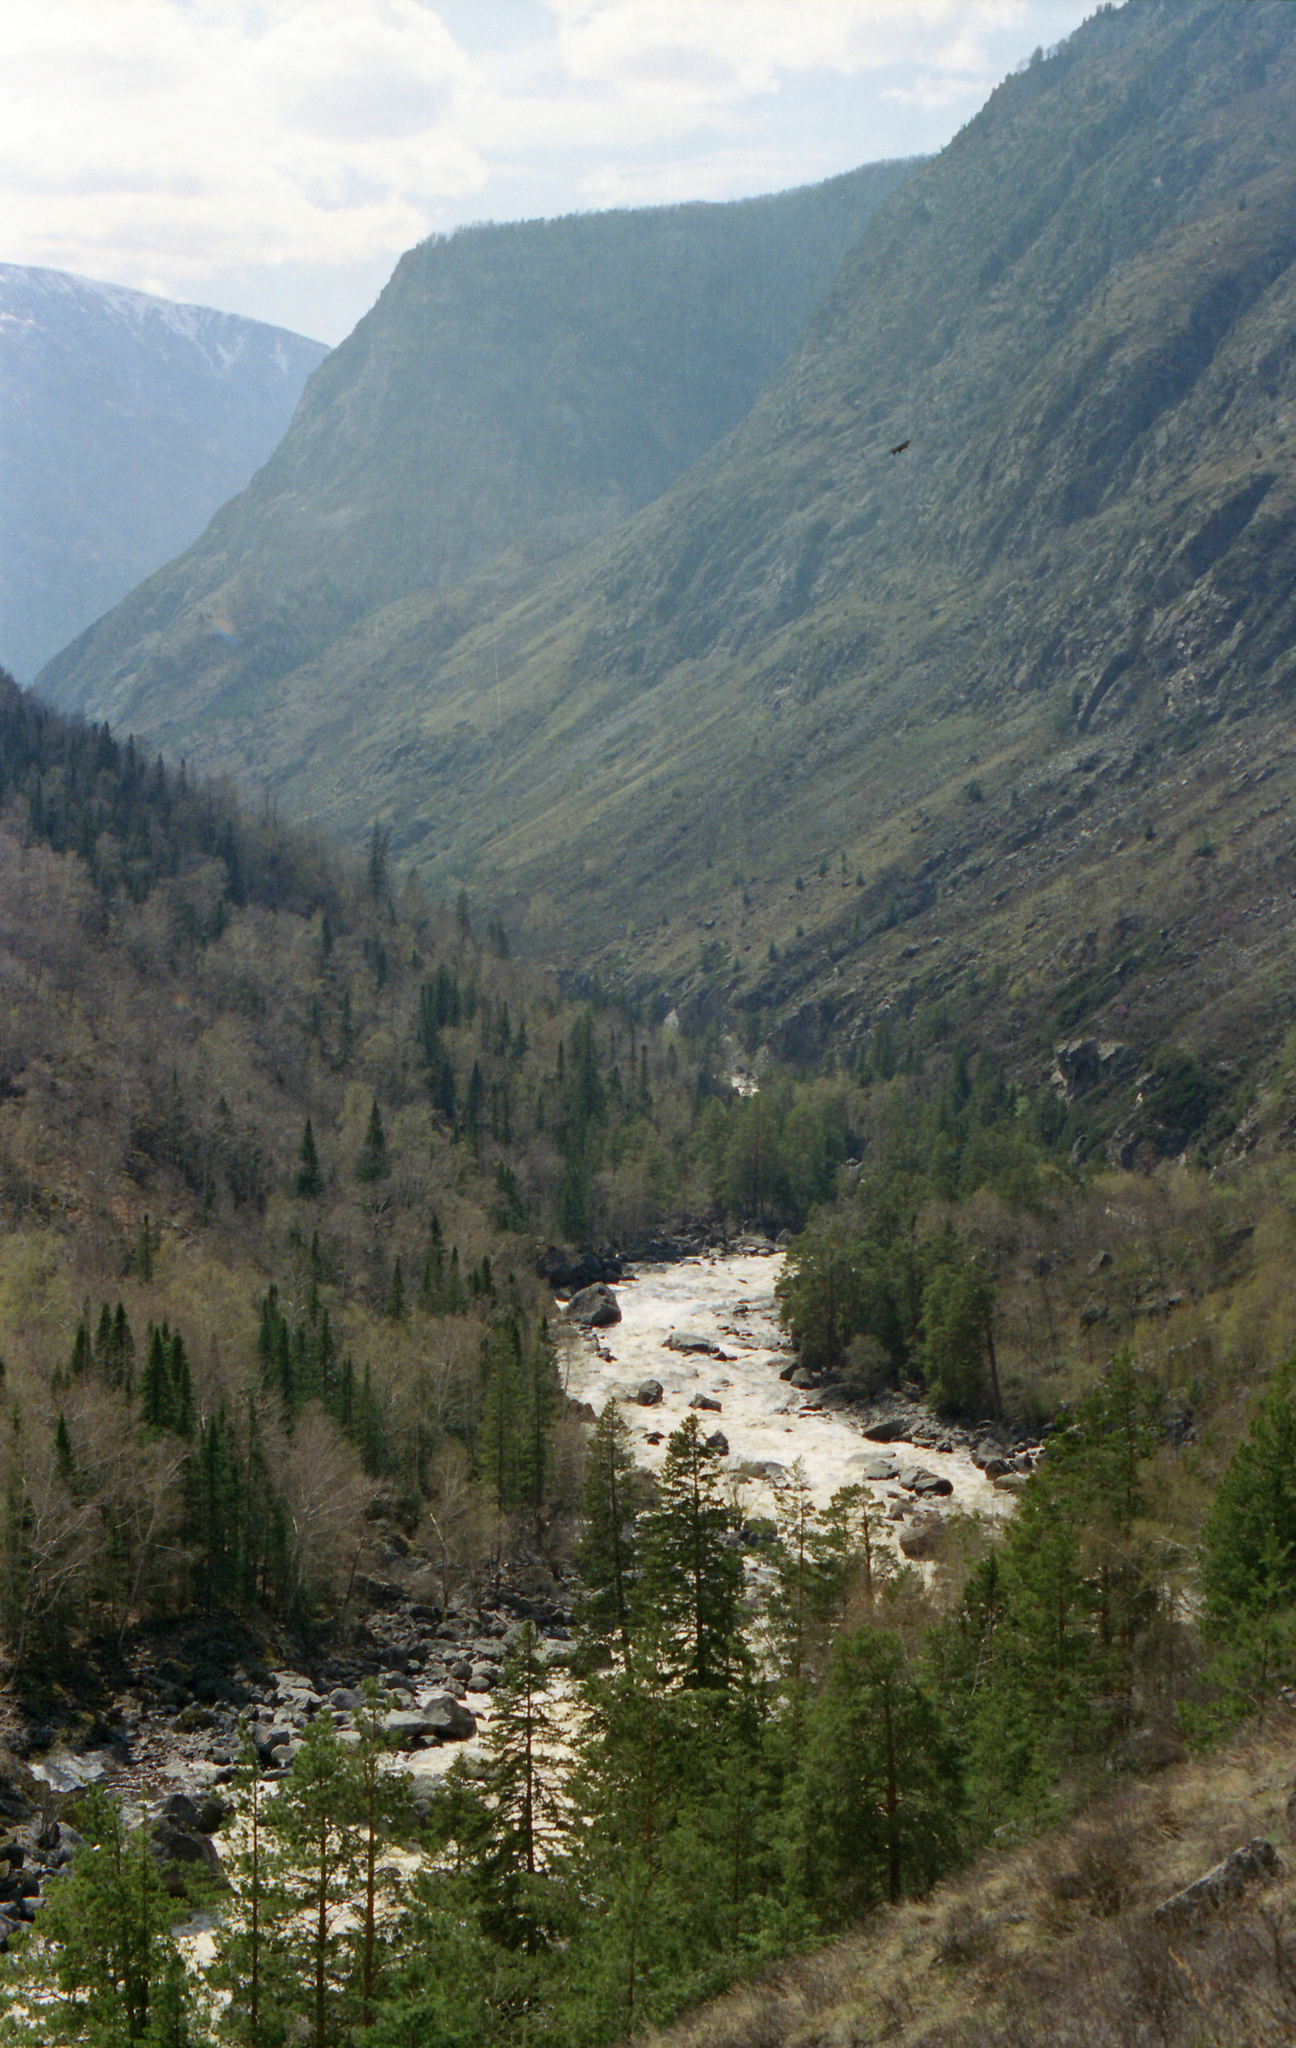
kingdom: Plantae
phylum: Tracheophyta
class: Pinopsida
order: Pinales
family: Pinaceae
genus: Pinus
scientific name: Pinus sylvestris
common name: Scots pine
